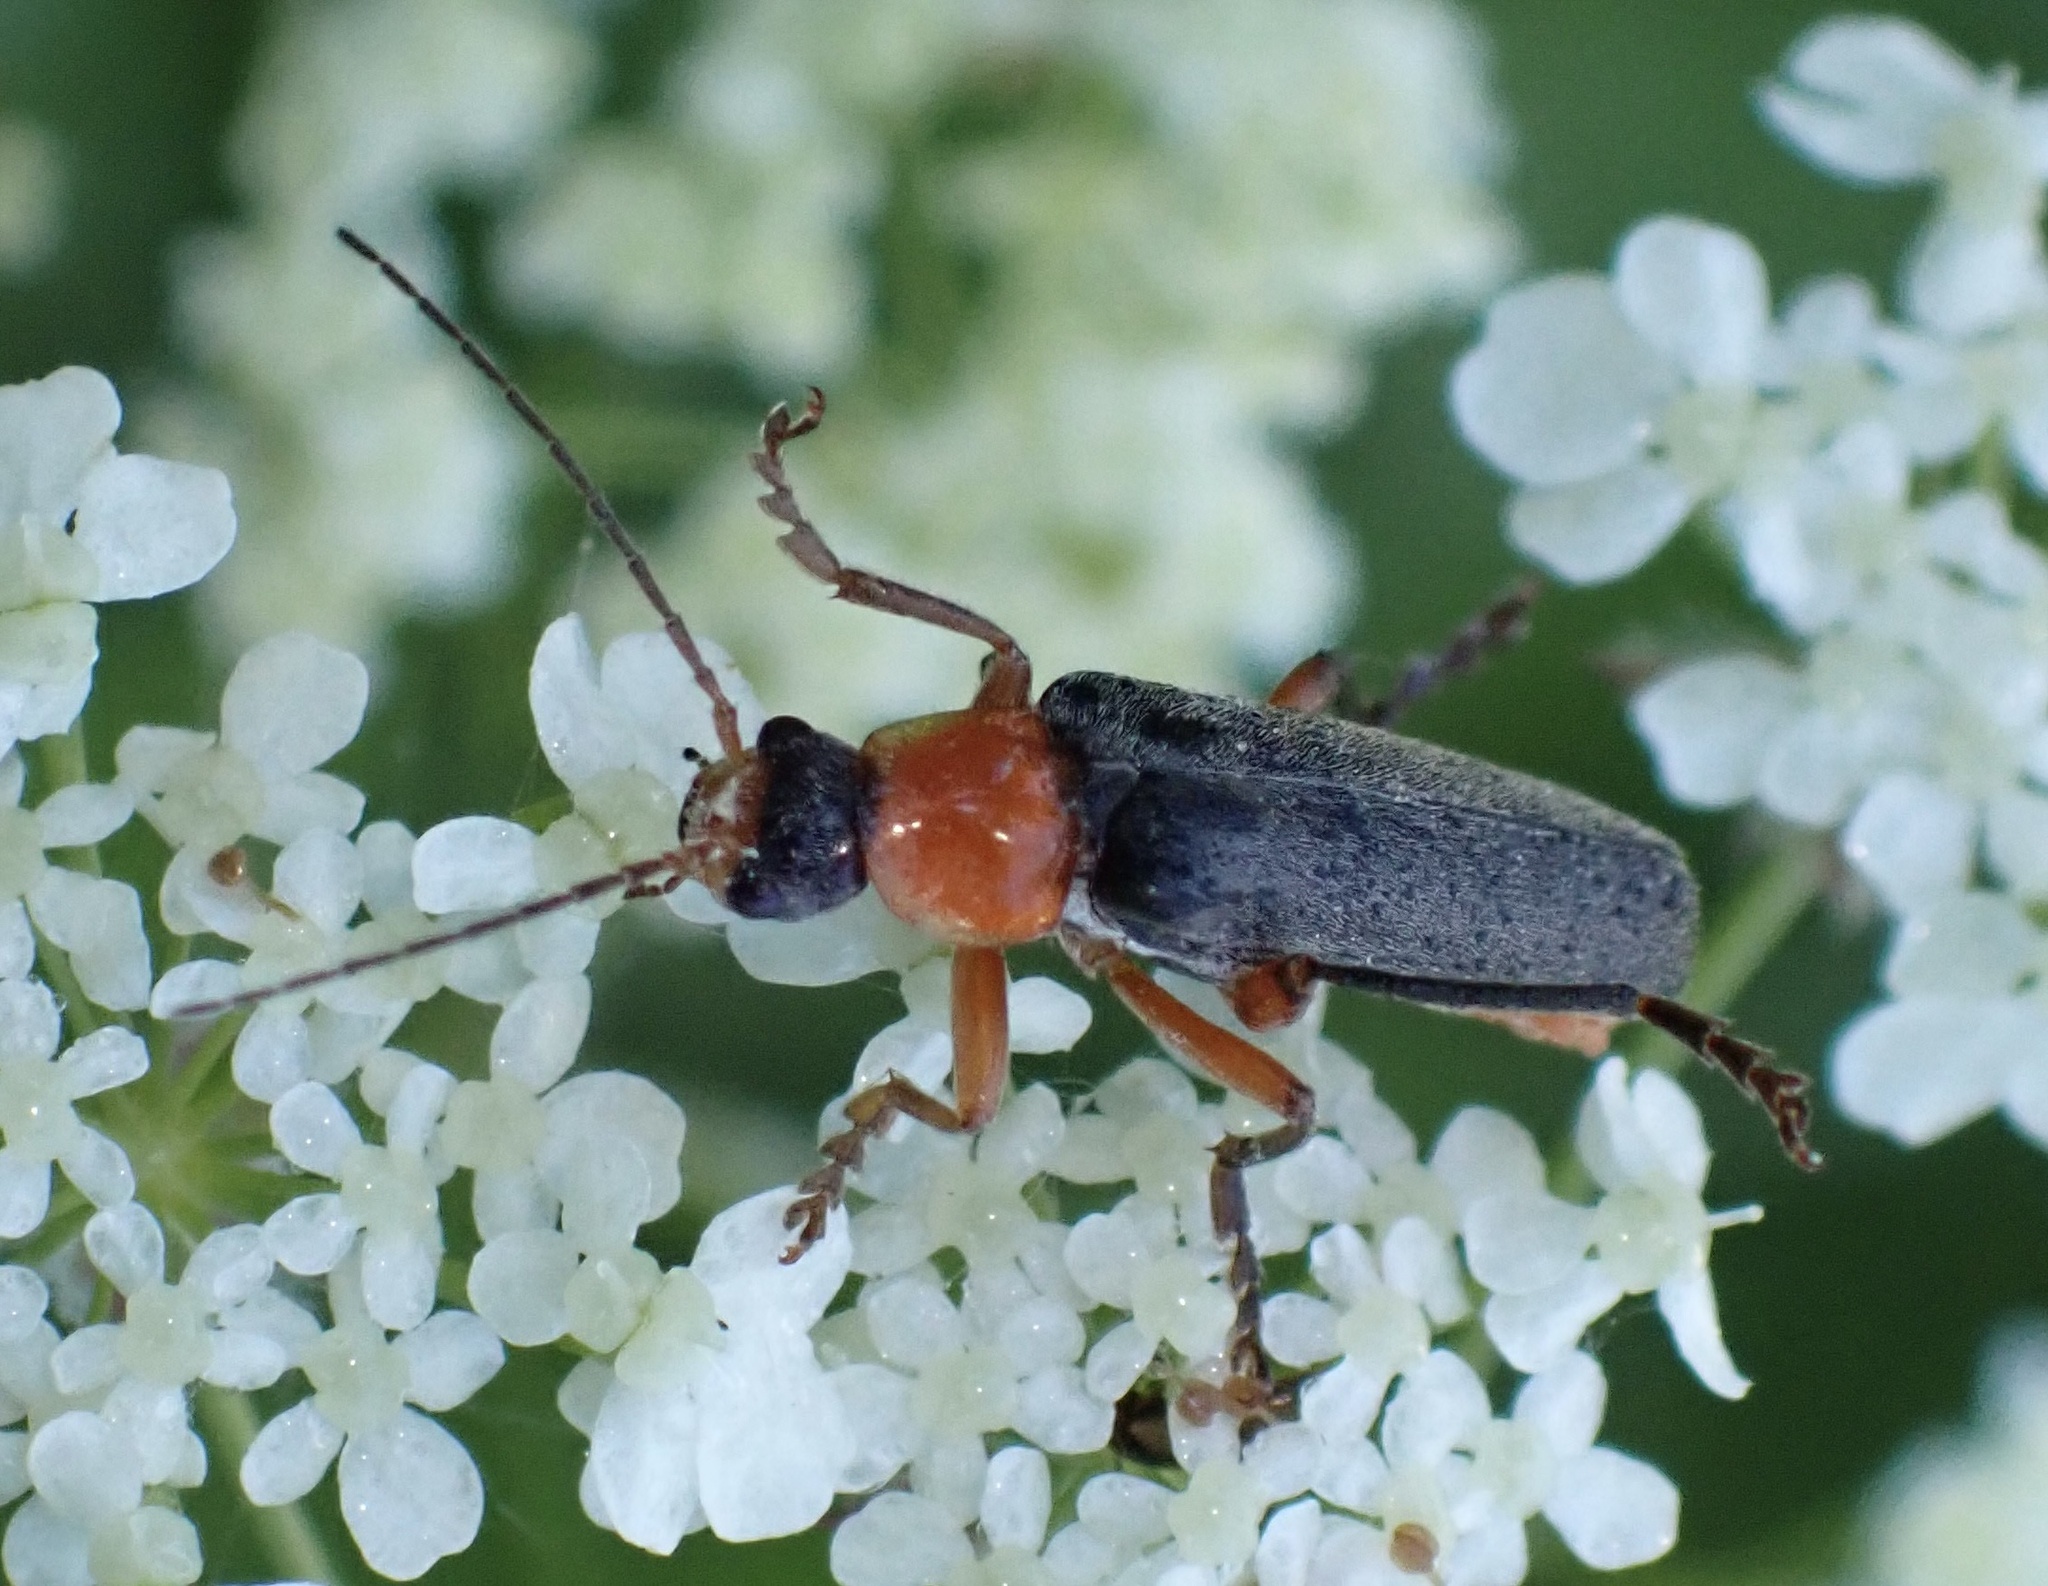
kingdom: Animalia
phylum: Arthropoda
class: Insecta
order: Coleoptera
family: Cantharidae
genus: Cantharis
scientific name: Cantharis pellucida
